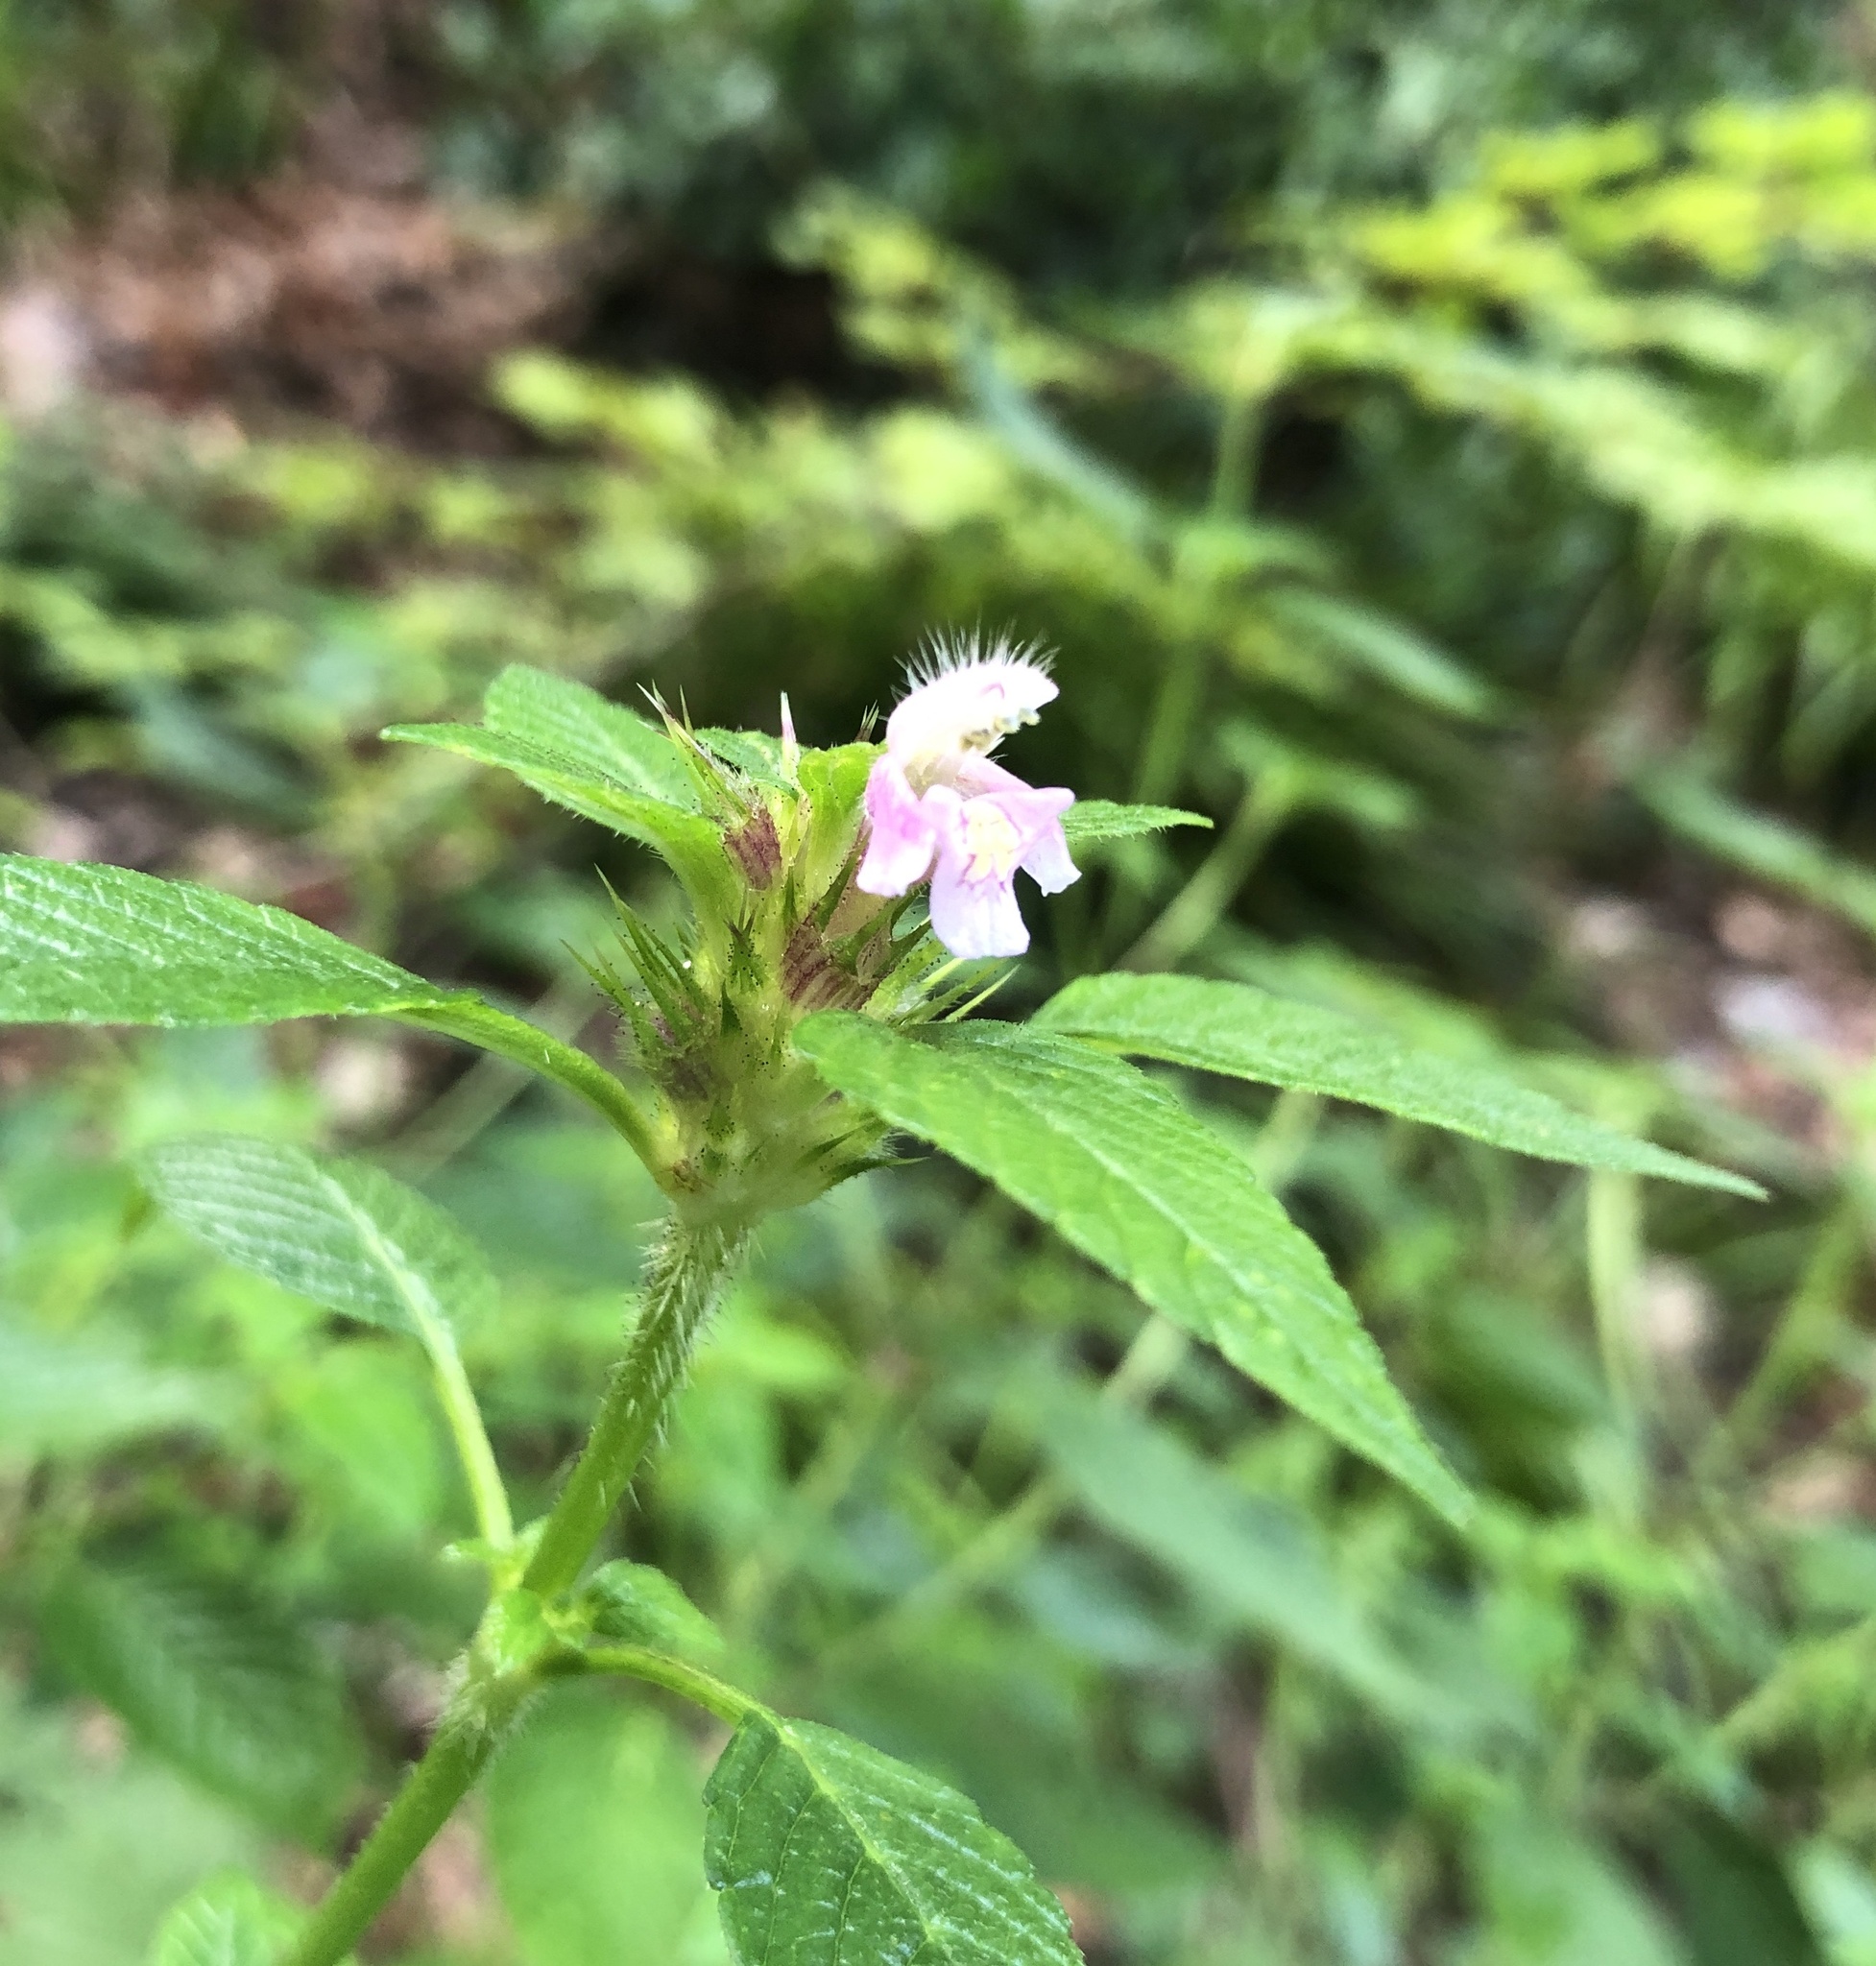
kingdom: Plantae
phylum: Tracheophyta
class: Magnoliopsida
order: Lamiales
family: Lamiaceae
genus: Galeopsis
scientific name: Galeopsis tetrahit
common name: Common hemp-nettle
